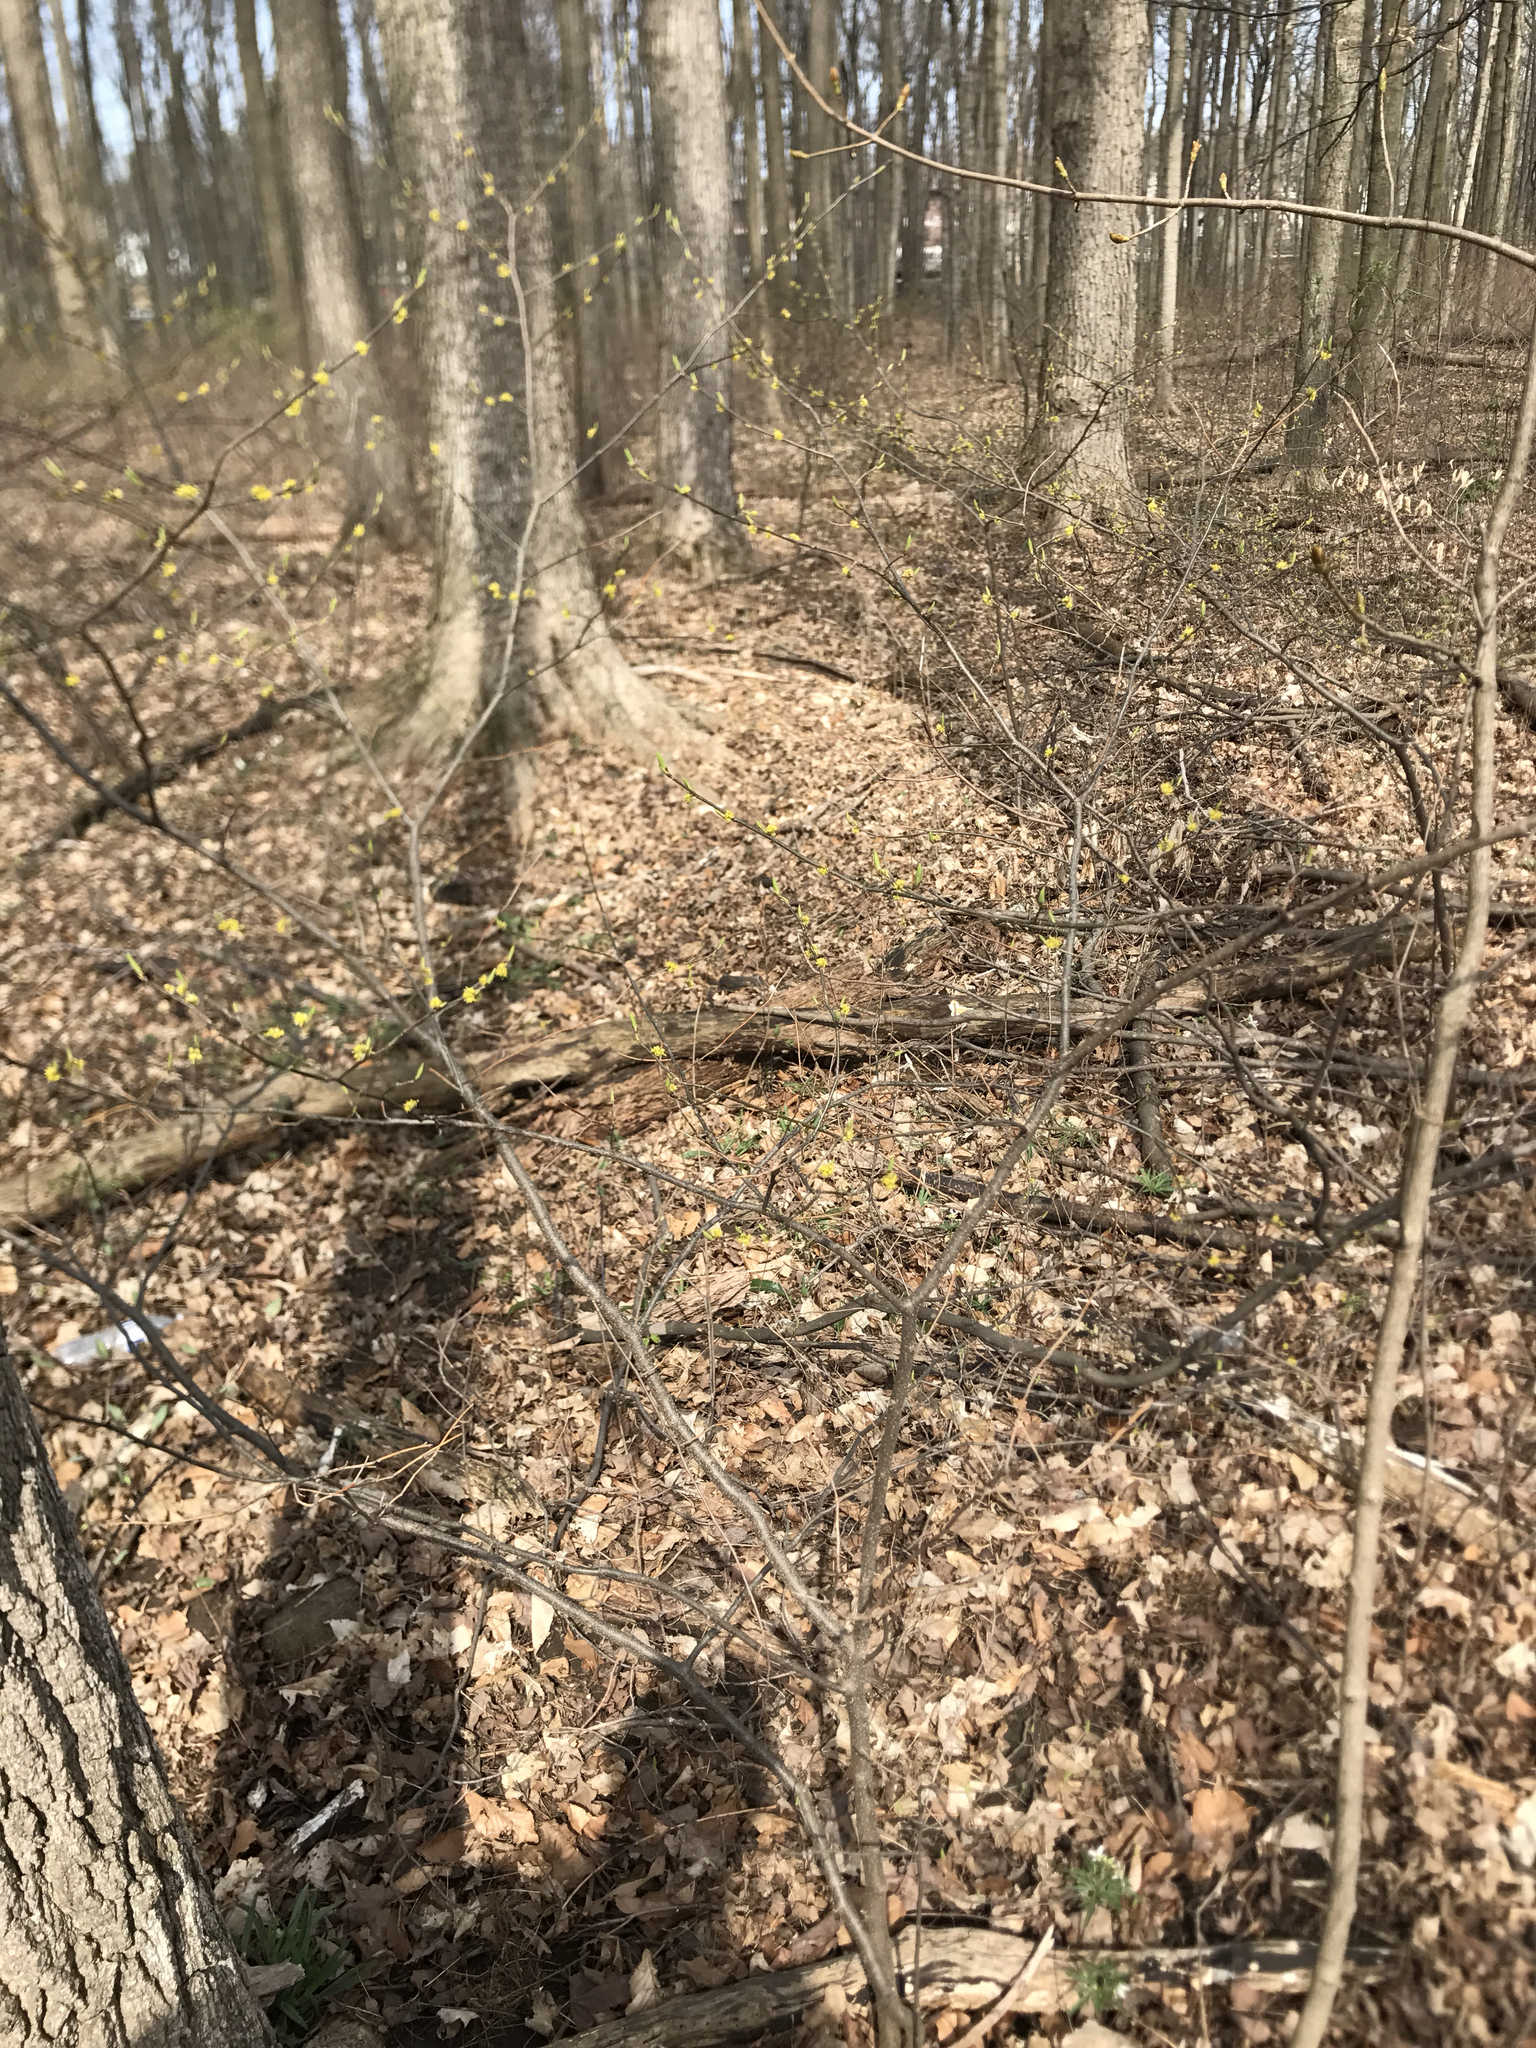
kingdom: Plantae
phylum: Tracheophyta
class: Magnoliopsida
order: Laurales
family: Lauraceae
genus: Lindera
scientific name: Lindera benzoin
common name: Spicebush
